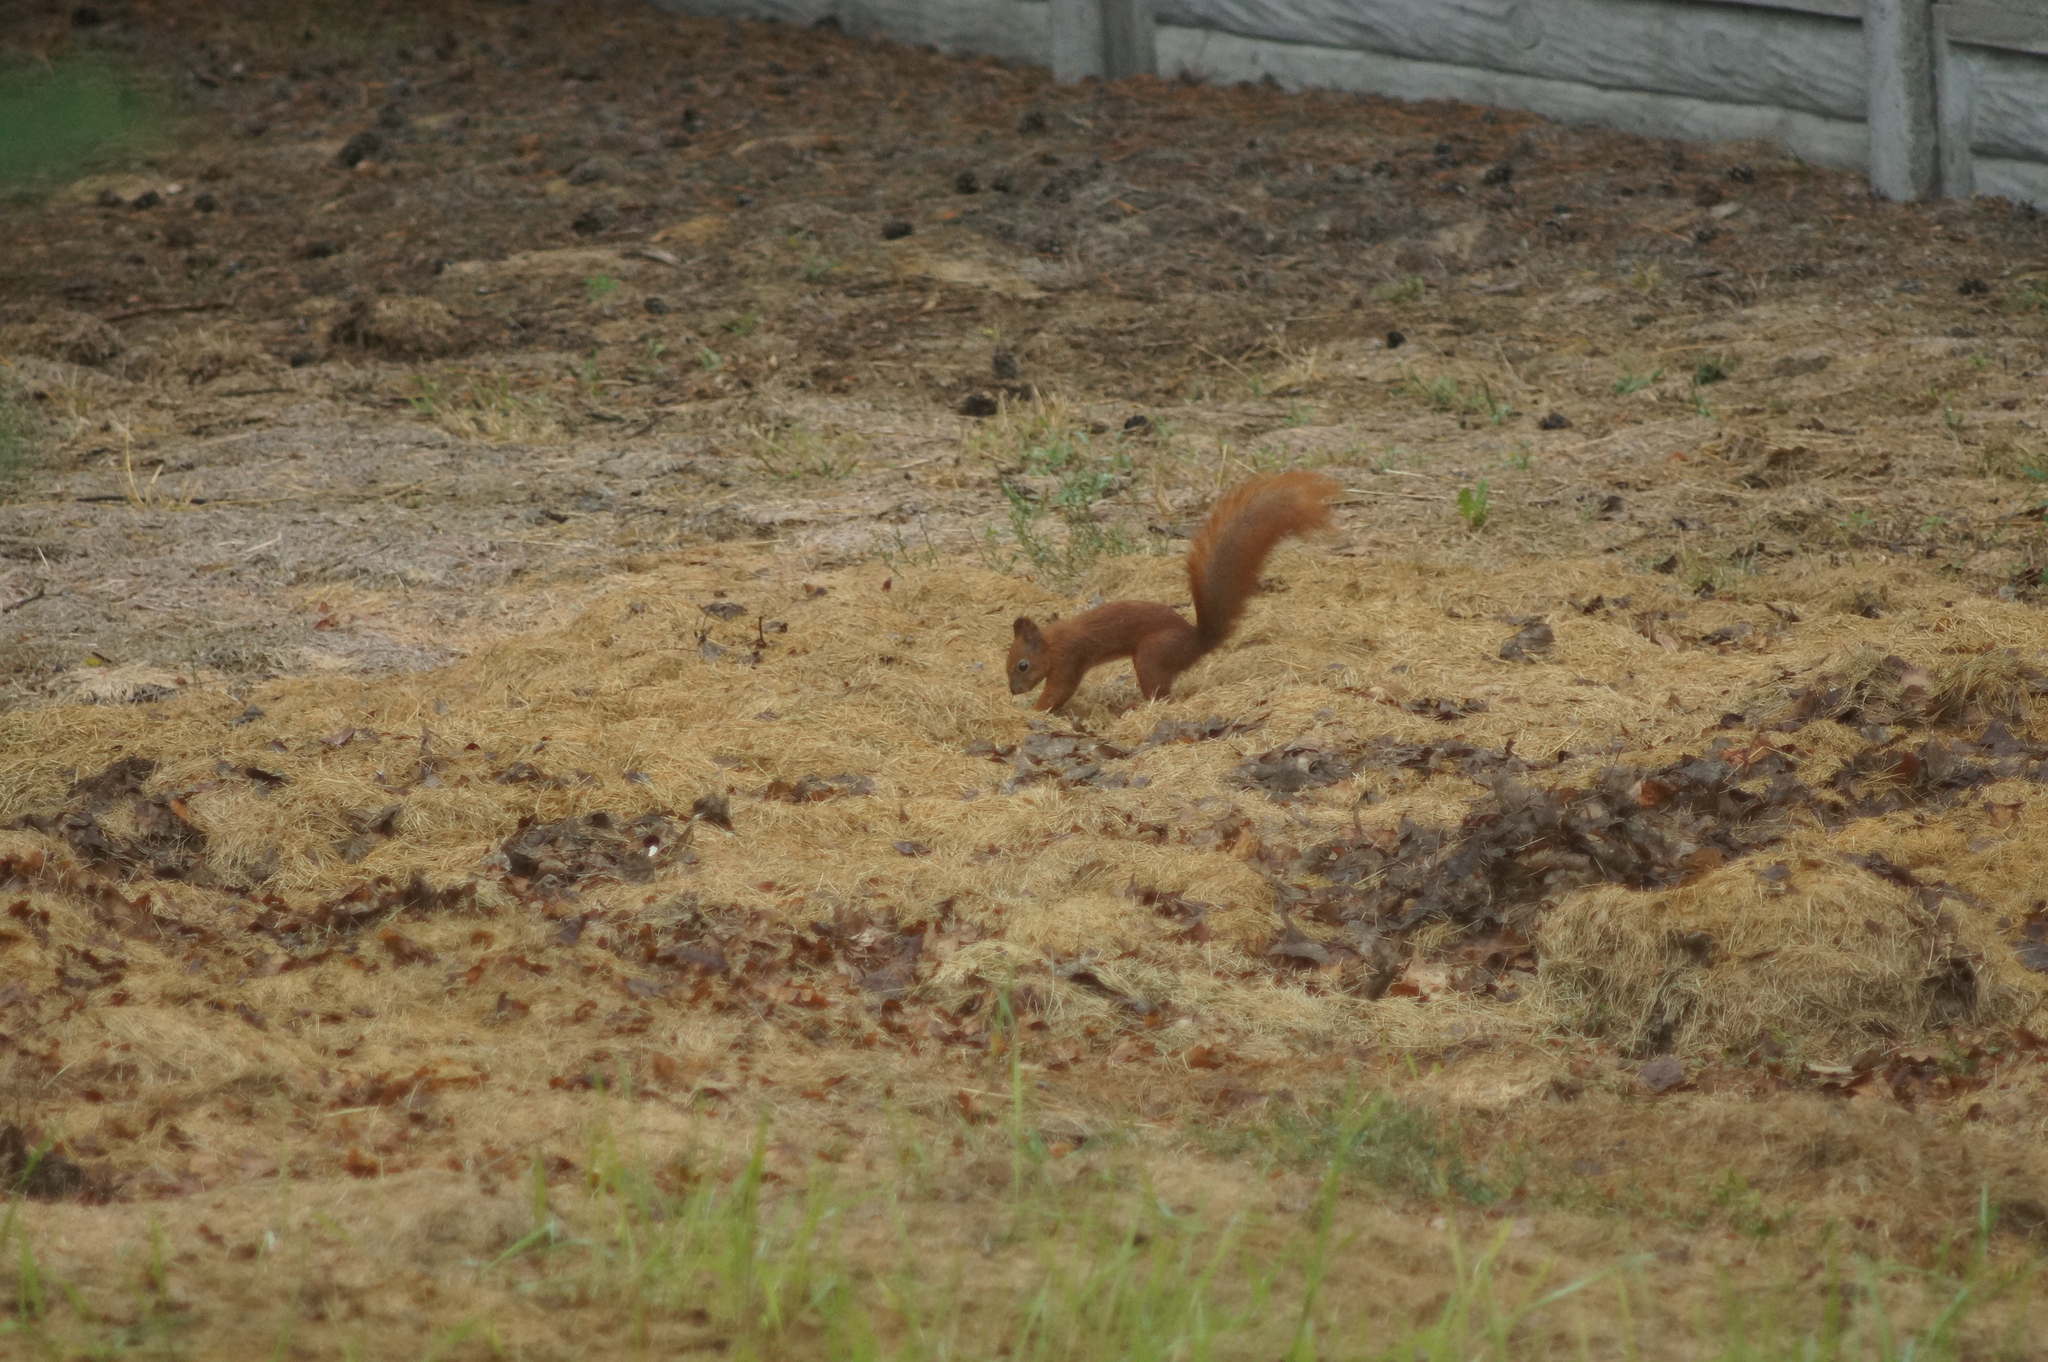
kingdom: Animalia
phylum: Chordata
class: Mammalia
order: Rodentia
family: Sciuridae
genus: Sciurus
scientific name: Sciurus vulgaris
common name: Eurasian red squirrel
